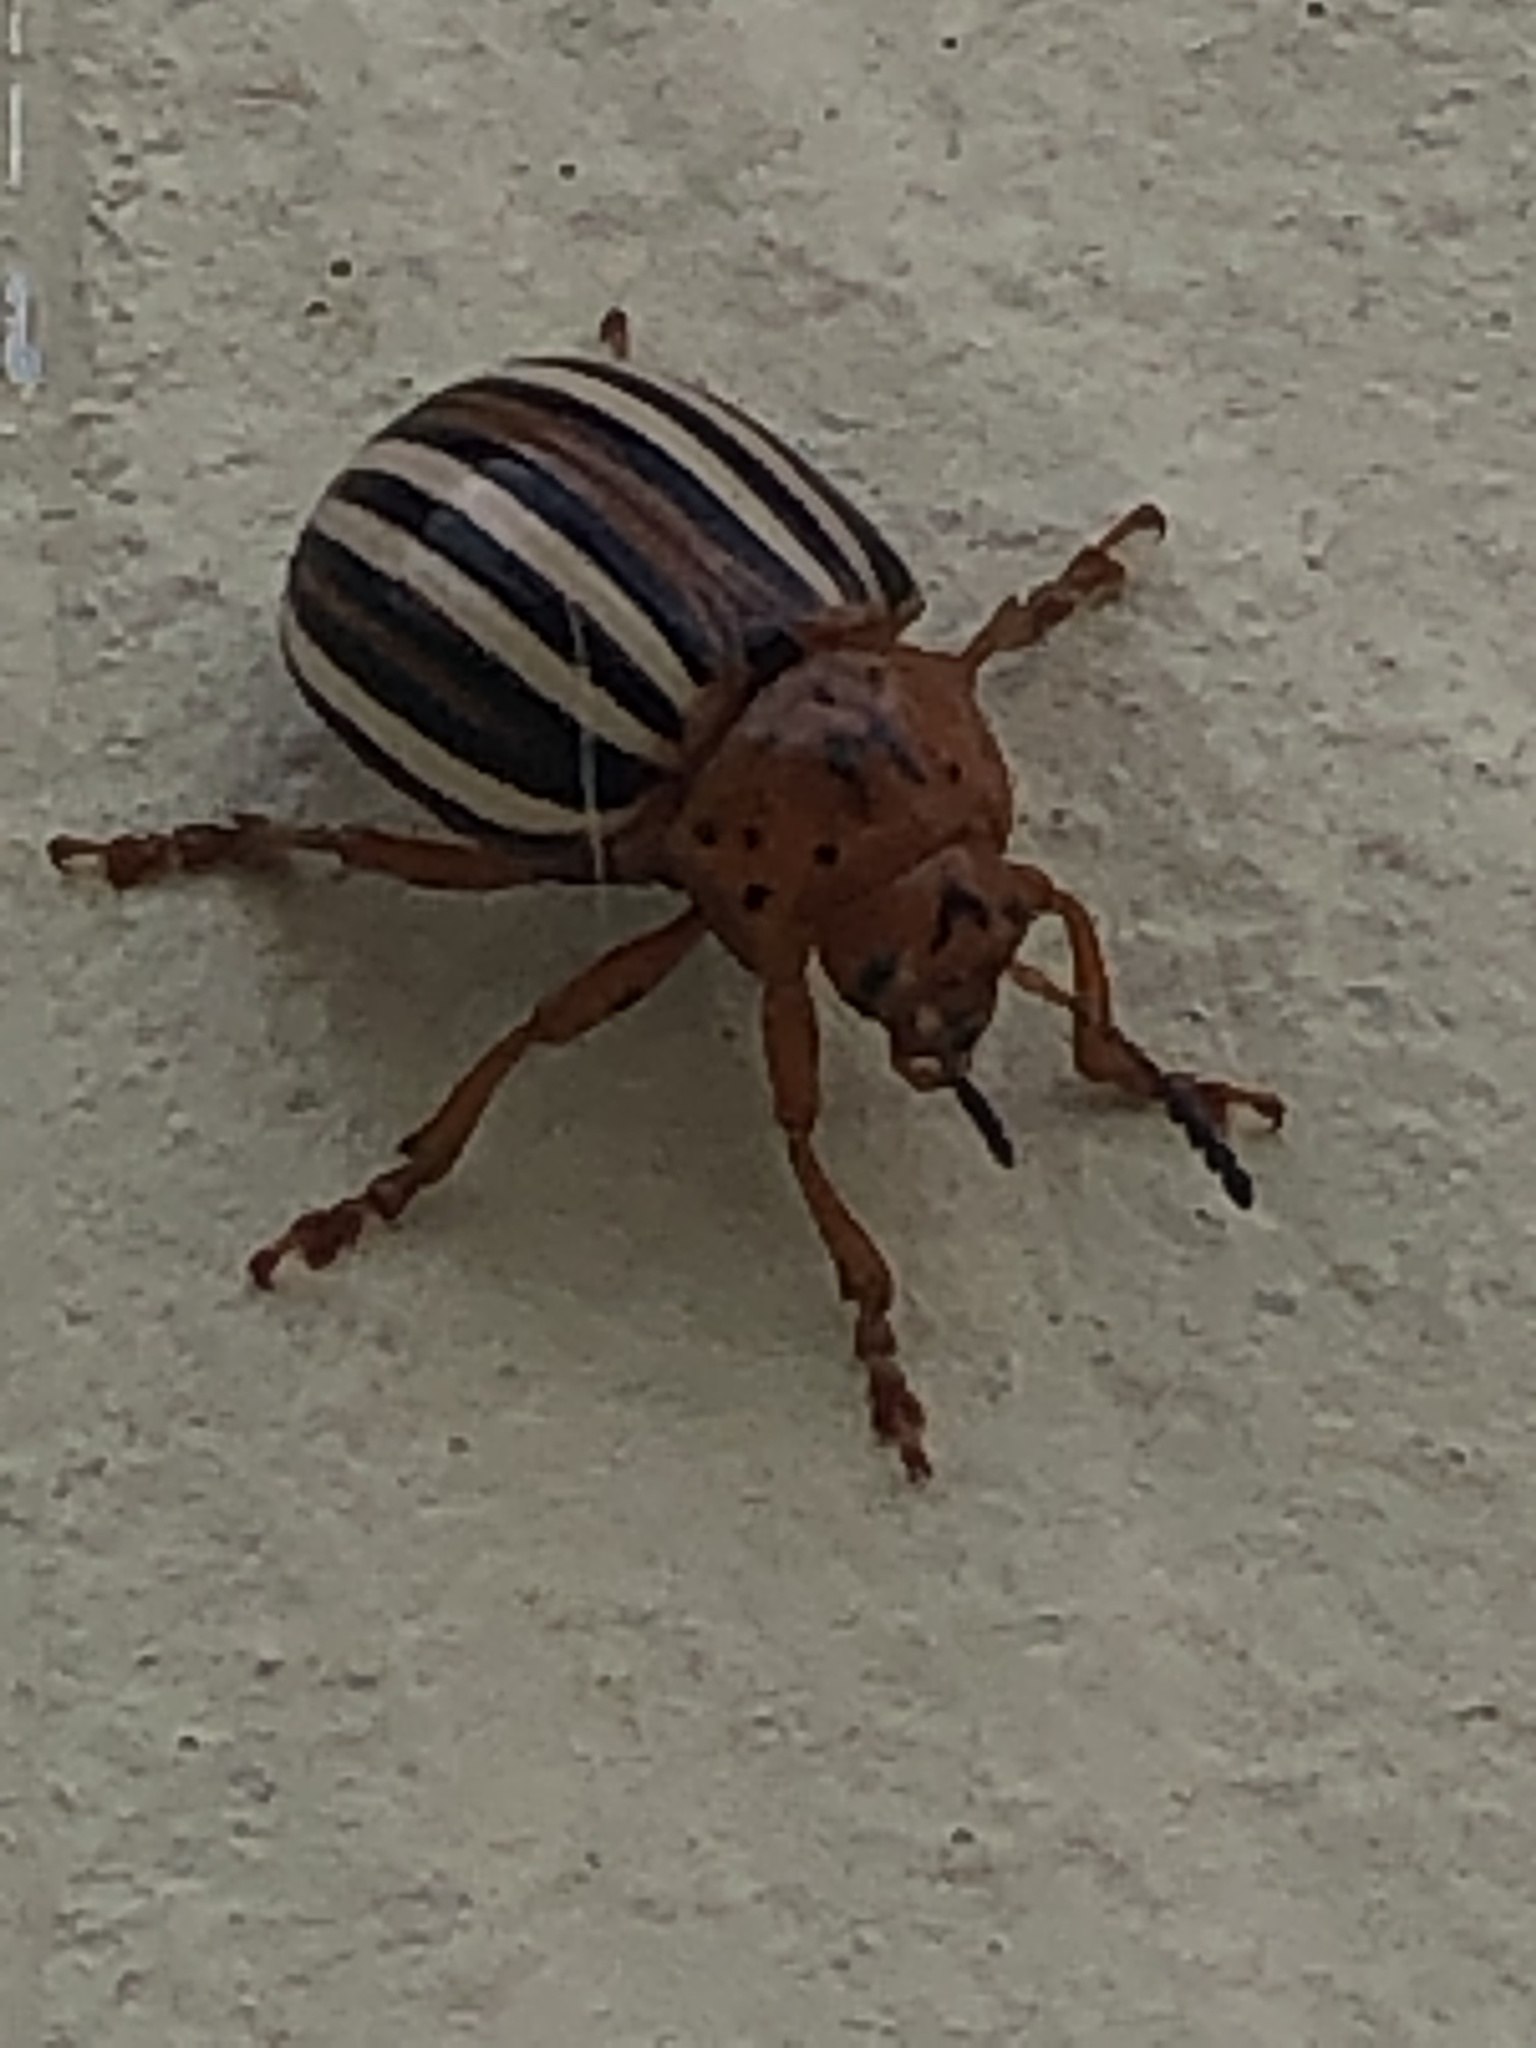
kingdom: Animalia
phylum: Arthropoda
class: Insecta
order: Coleoptera
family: Chrysomelidae
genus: Leptinotarsa
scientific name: Leptinotarsa juncta
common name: False potato beetle
